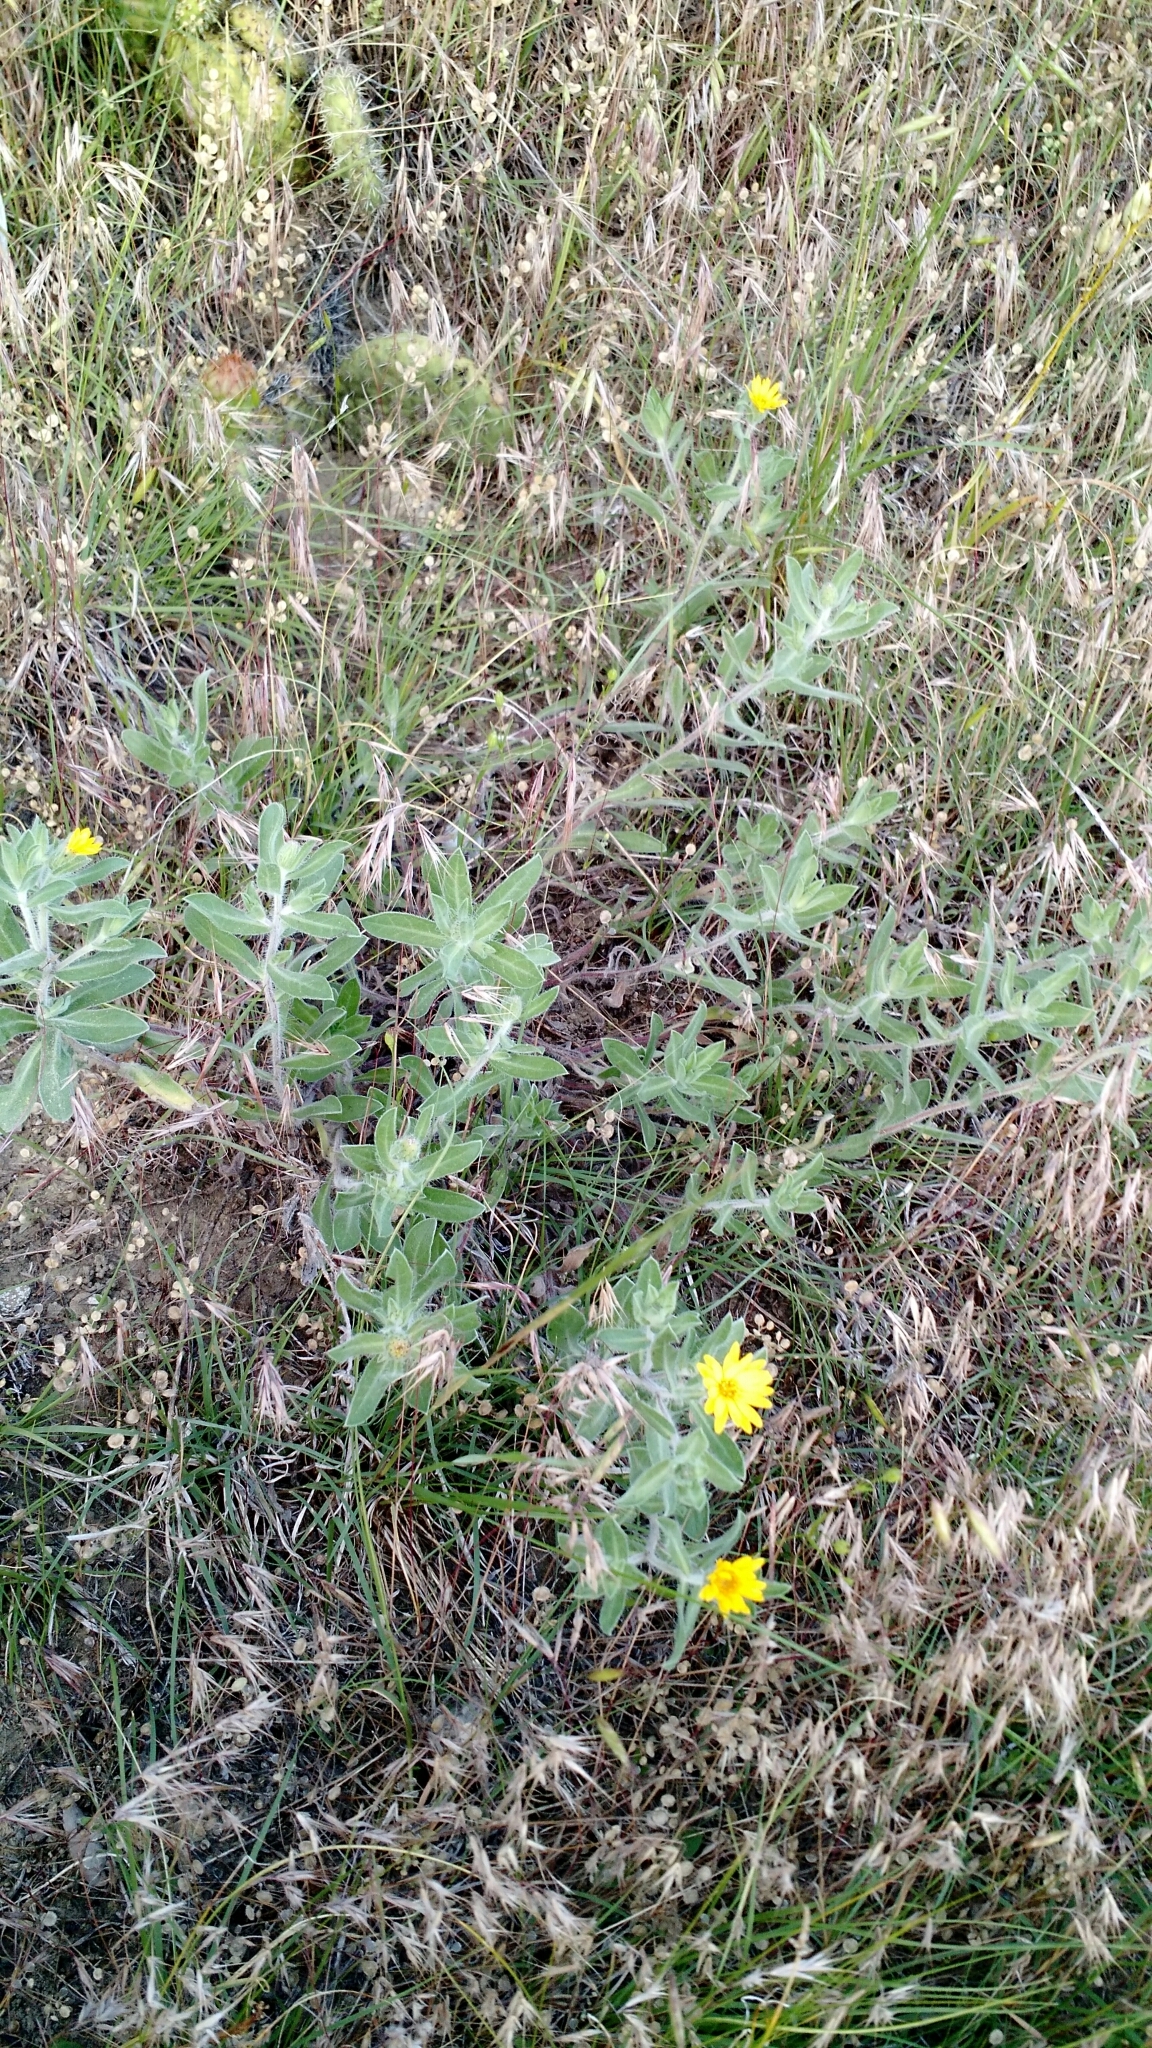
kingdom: Plantae
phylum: Tracheophyta
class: Magnoliopsida
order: Asterales
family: Asteraceae
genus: Heterotheca
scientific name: Heterotheca villosa
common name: Hairy false goldenaster
